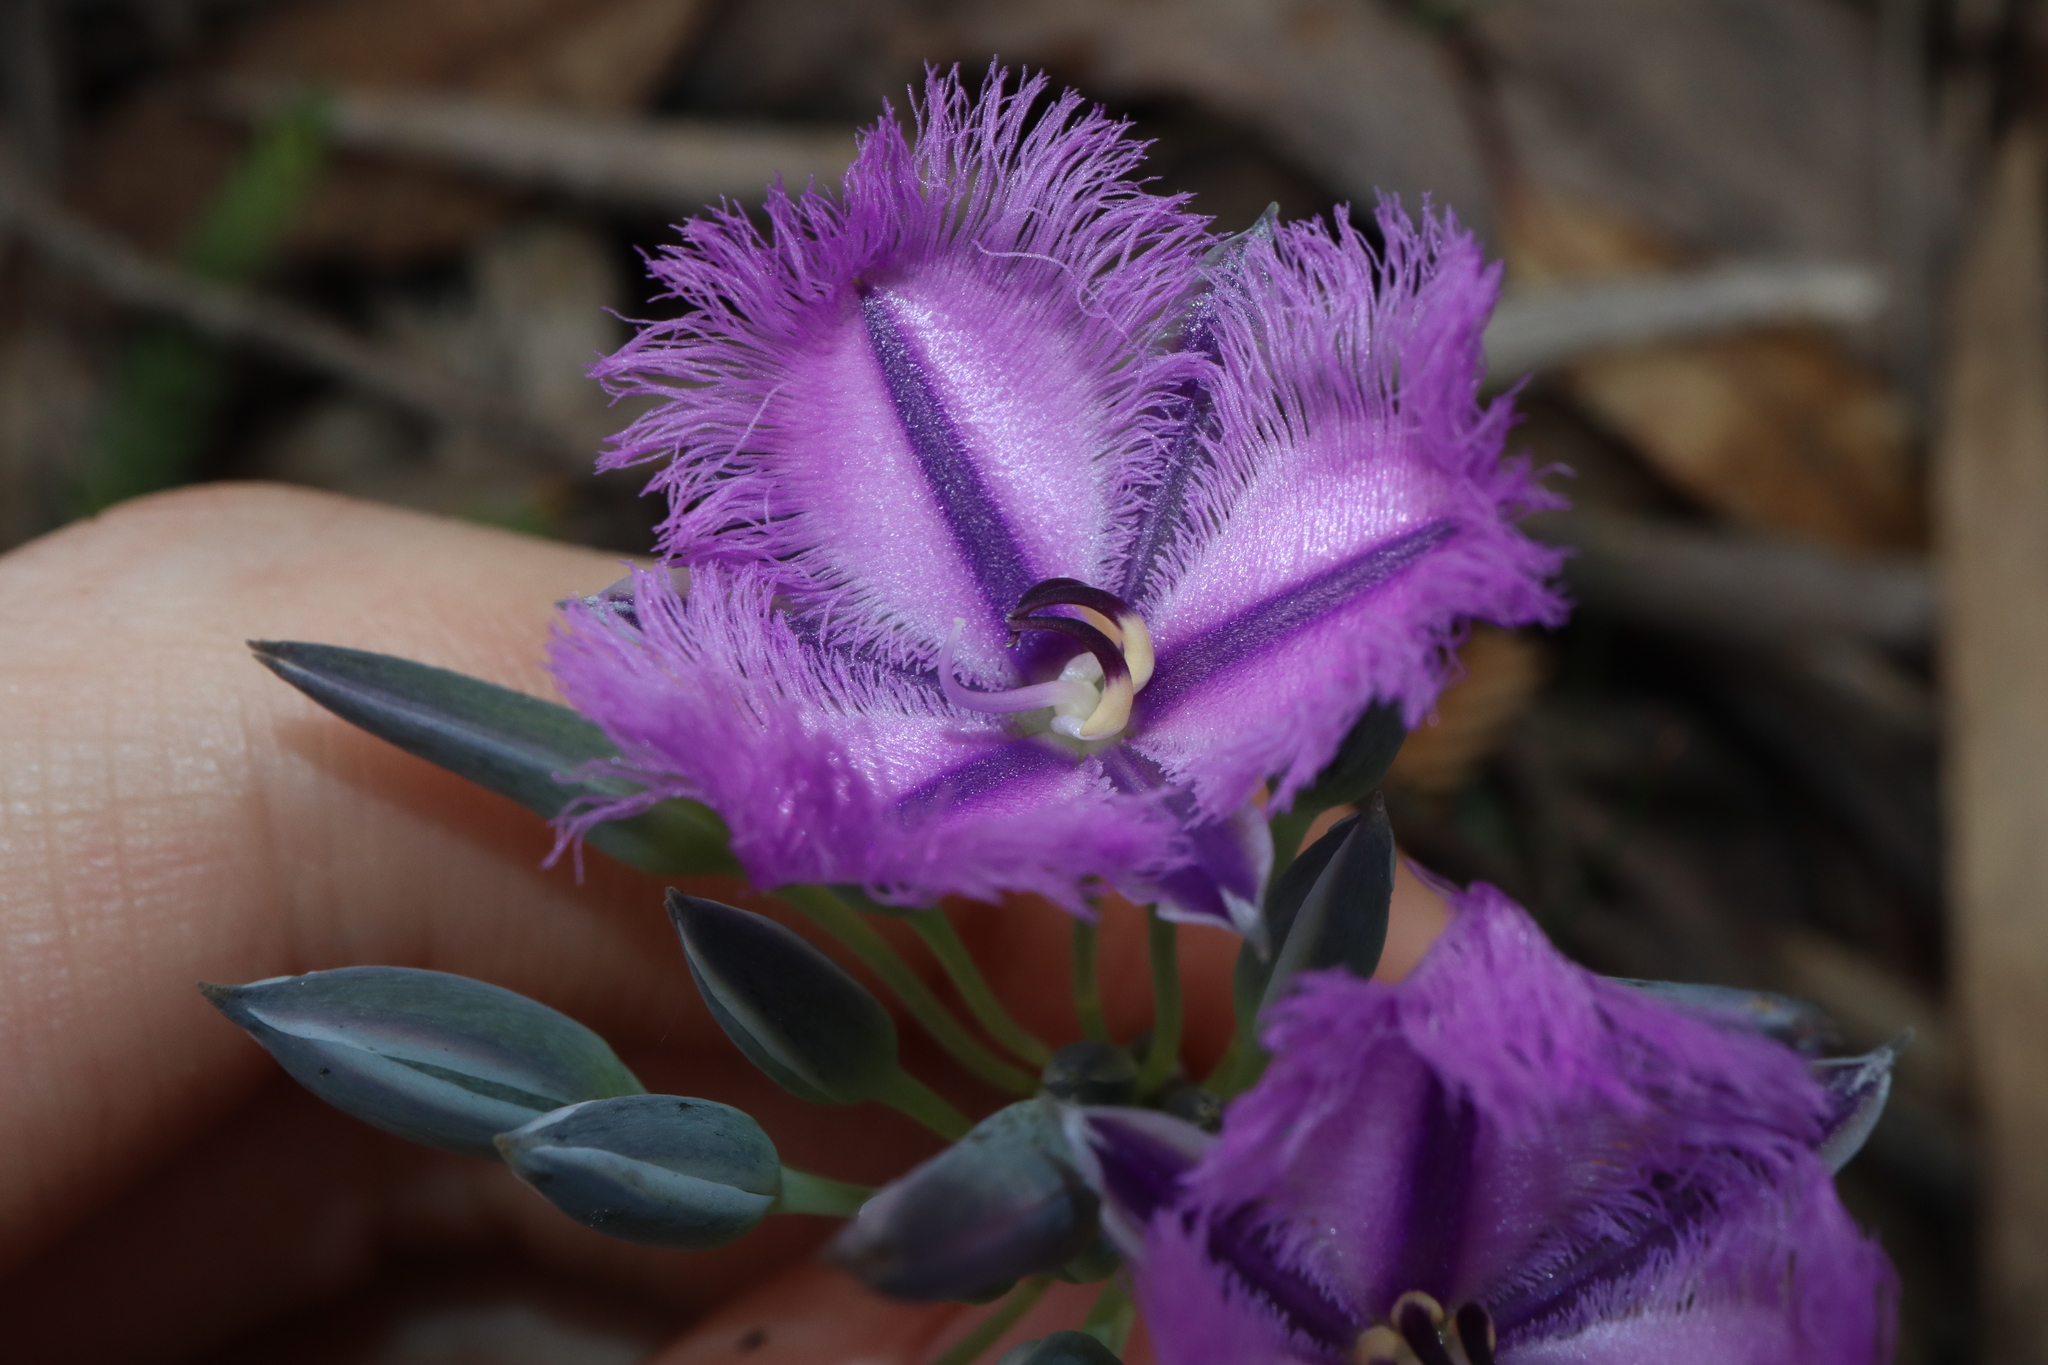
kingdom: Plantae
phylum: Tracheophyta
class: Liliopsida
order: Asparagales
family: Asparagaceae
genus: Thysanotus
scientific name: Thysanotus multiflorus
